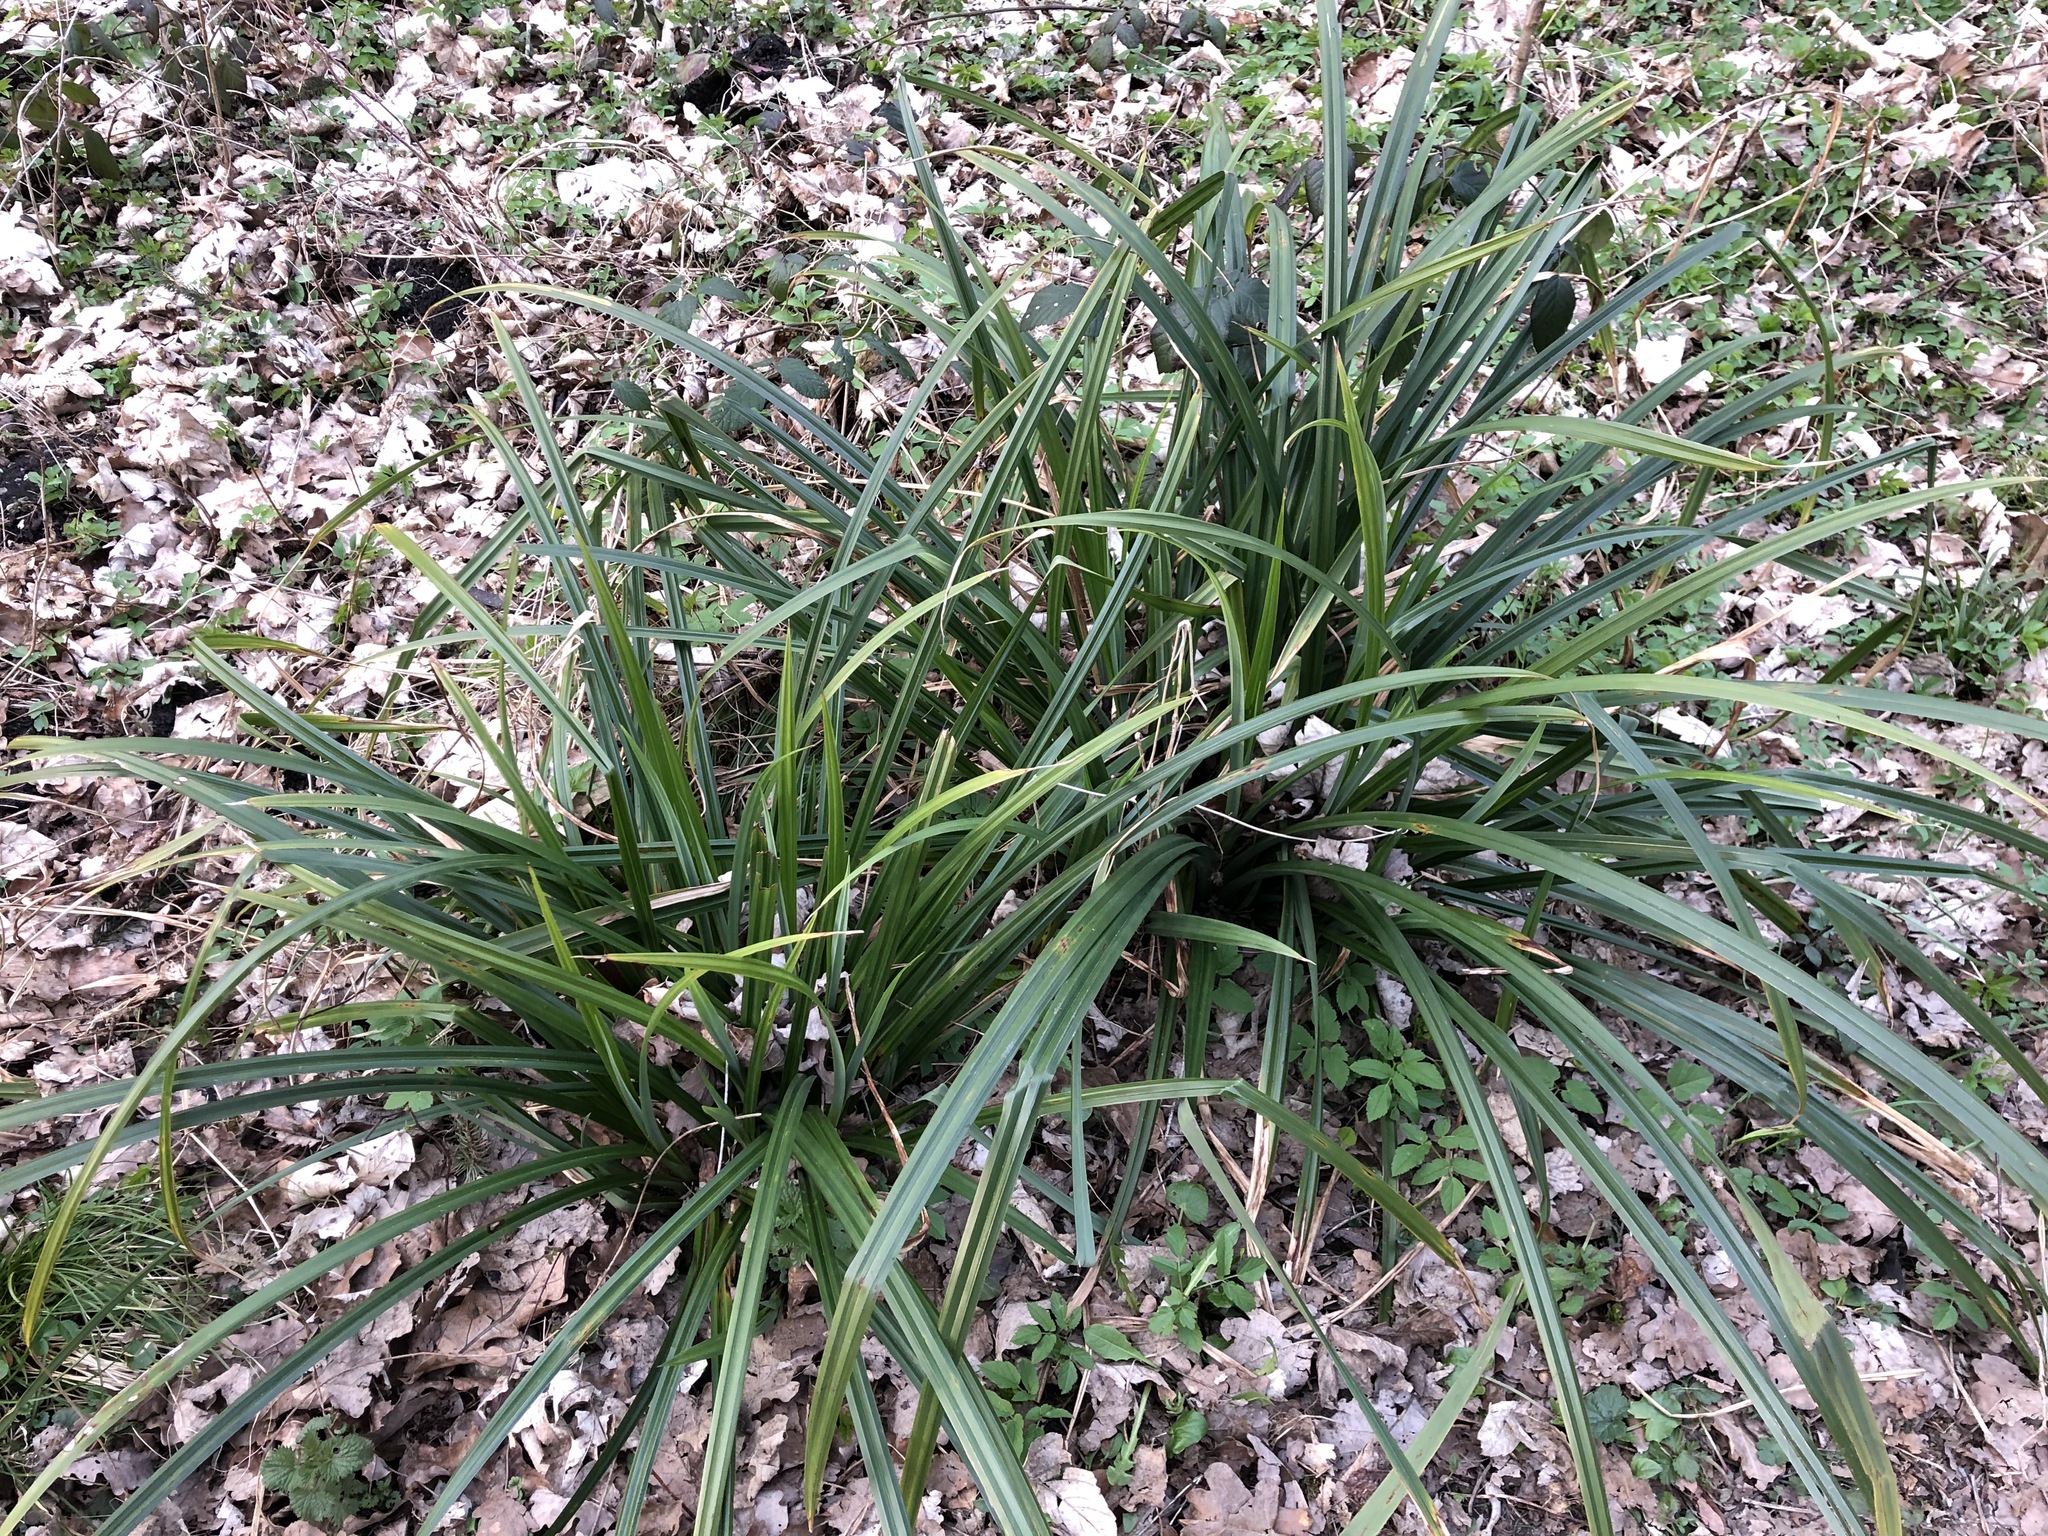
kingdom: Plantae
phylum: Tracheophyta
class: Liliopsida
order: Poales
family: Cyperaceae
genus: Carex
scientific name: Carex pendula
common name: Pendulous sedge
